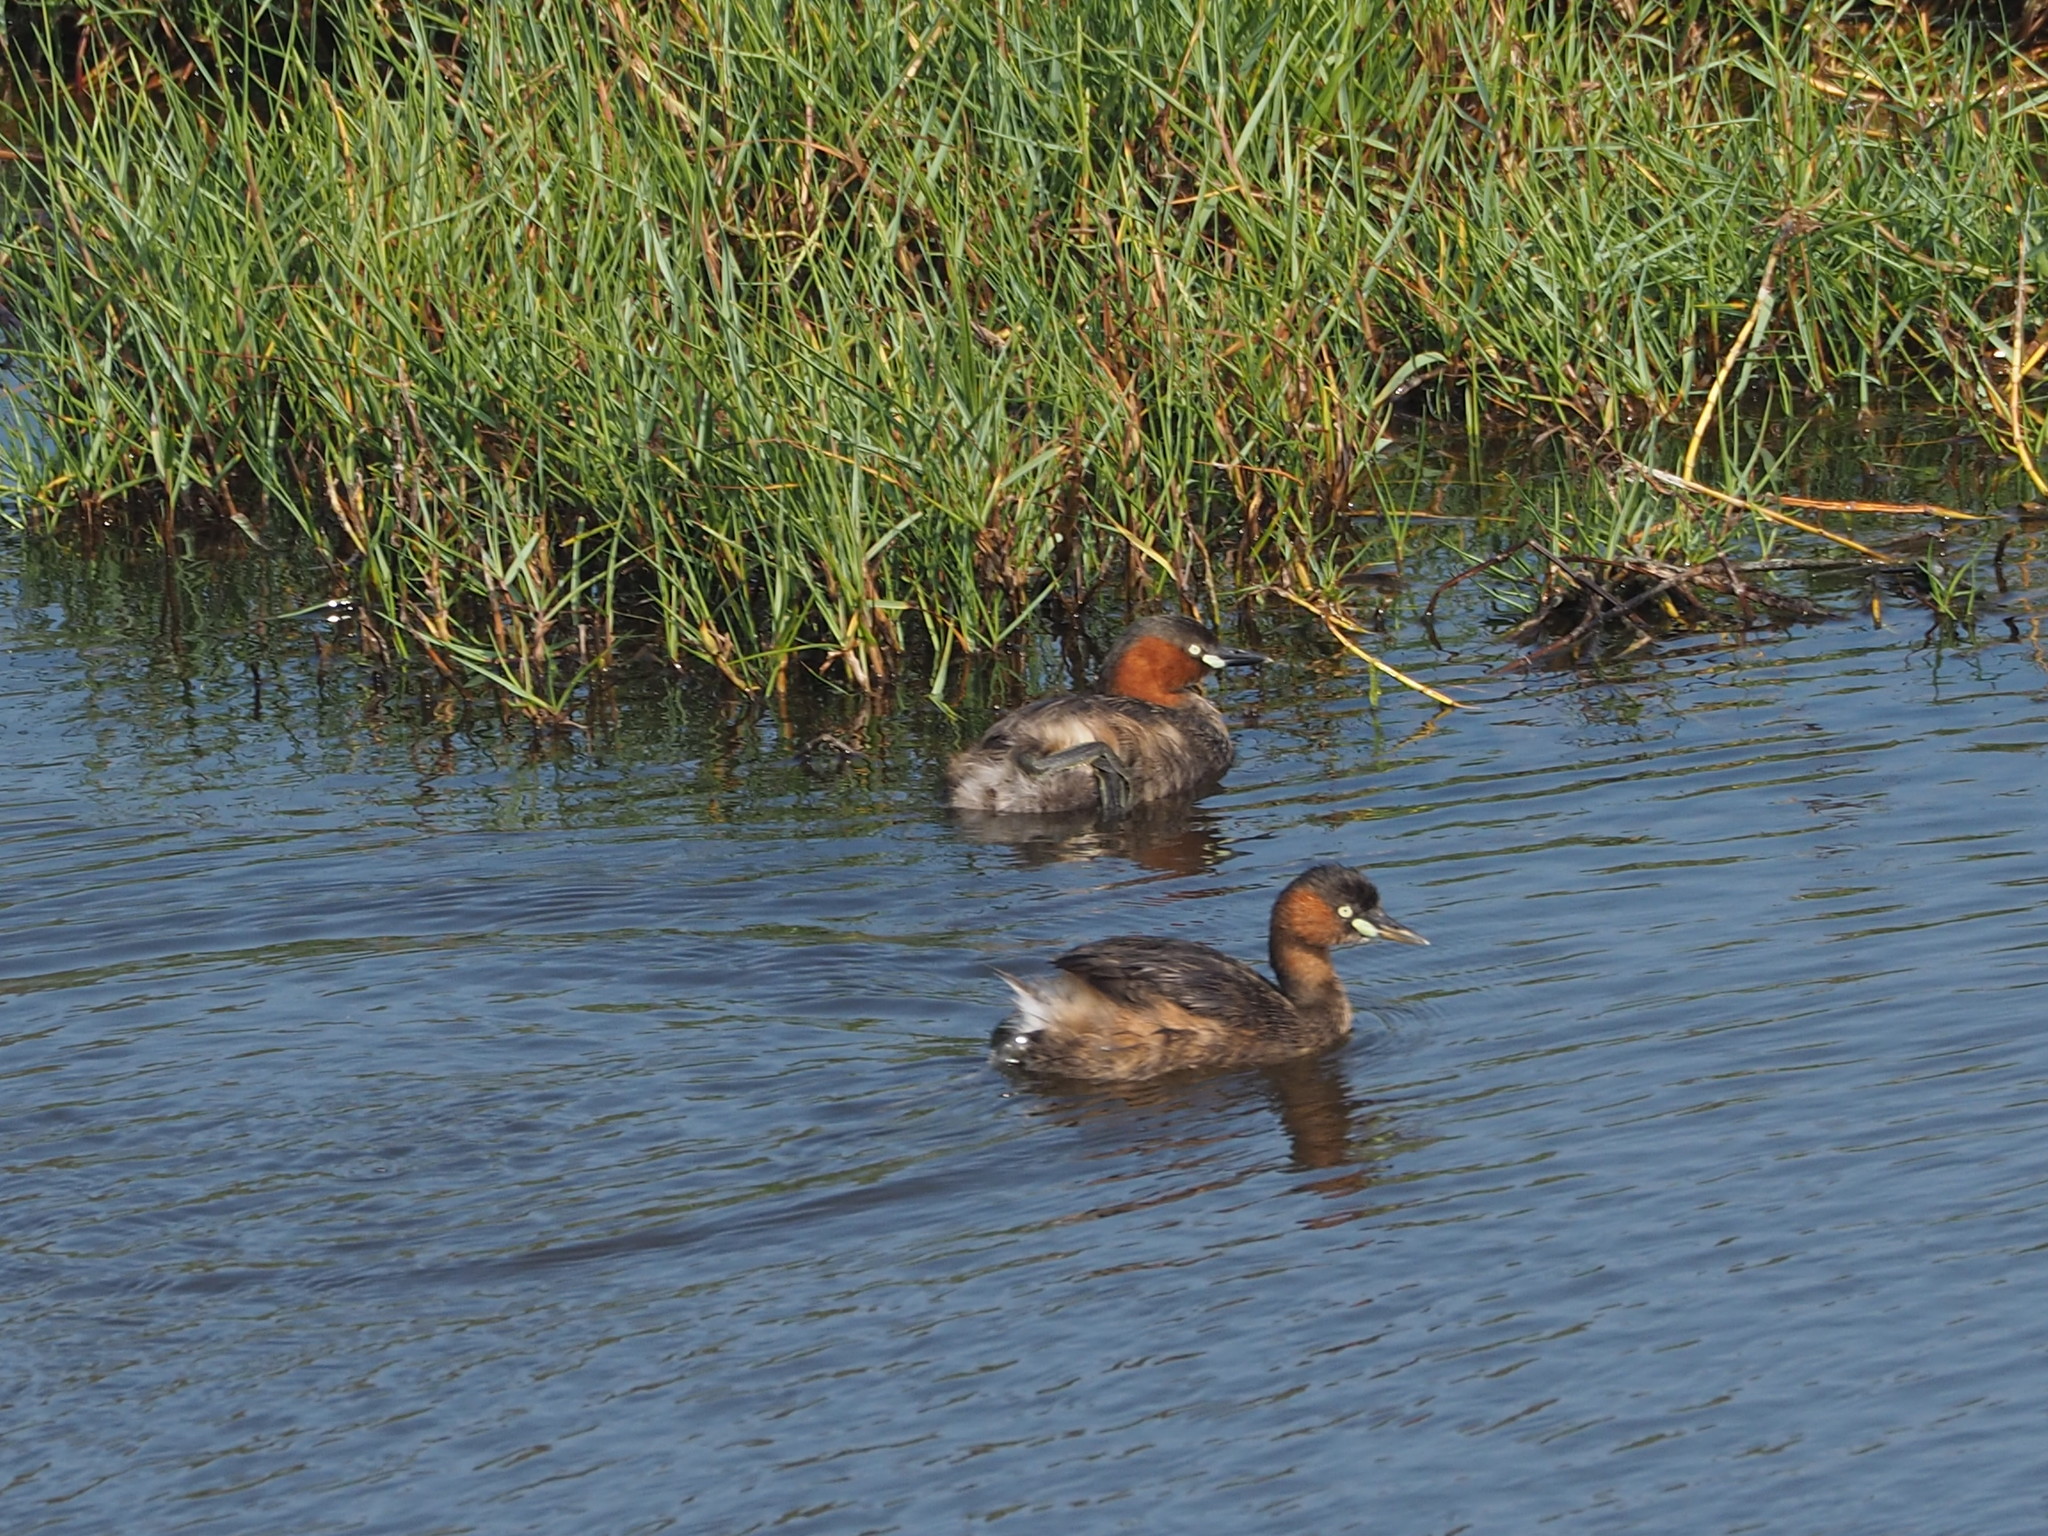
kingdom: Animalia
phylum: Chordata
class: Aves
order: Podicipediformes
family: Podicipedidae
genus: Tachybaptus
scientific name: Tachybaptus ruficollis
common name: Little grebe
